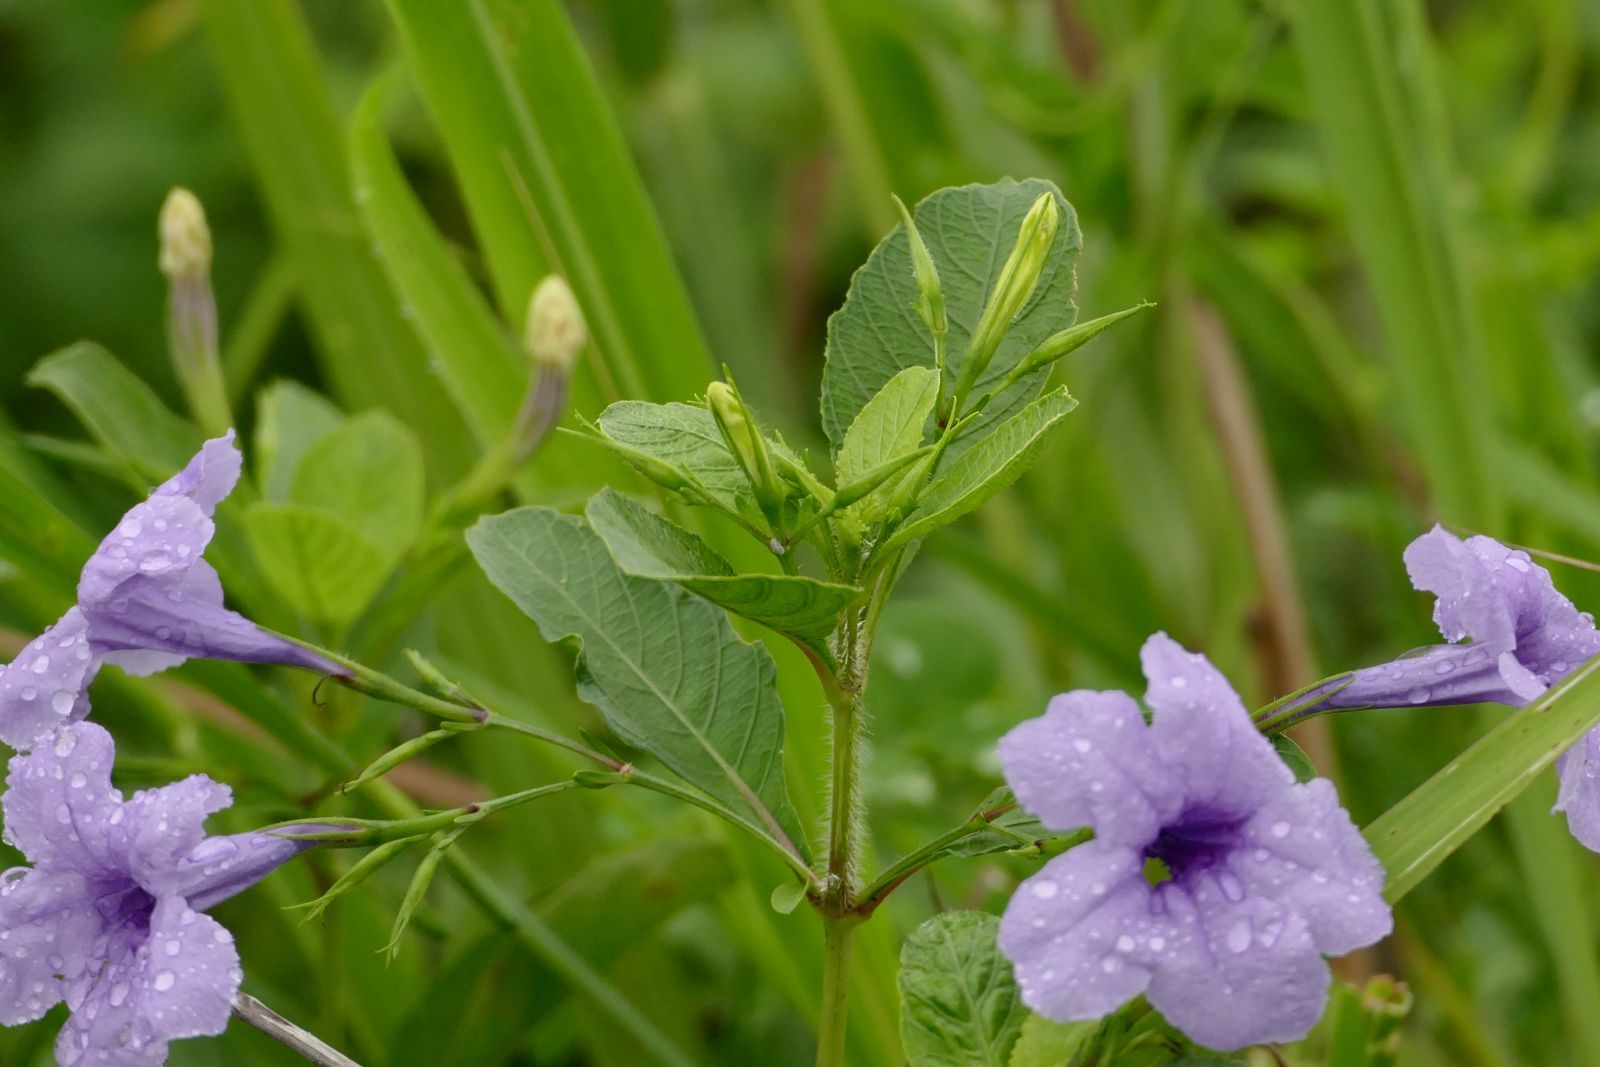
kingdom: Plantae
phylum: Tracheophyta
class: Magnoliopsida
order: Lamiales
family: Acanthaceae
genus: Ruellia
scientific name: Ruellia tuberosa
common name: Devil's bit
